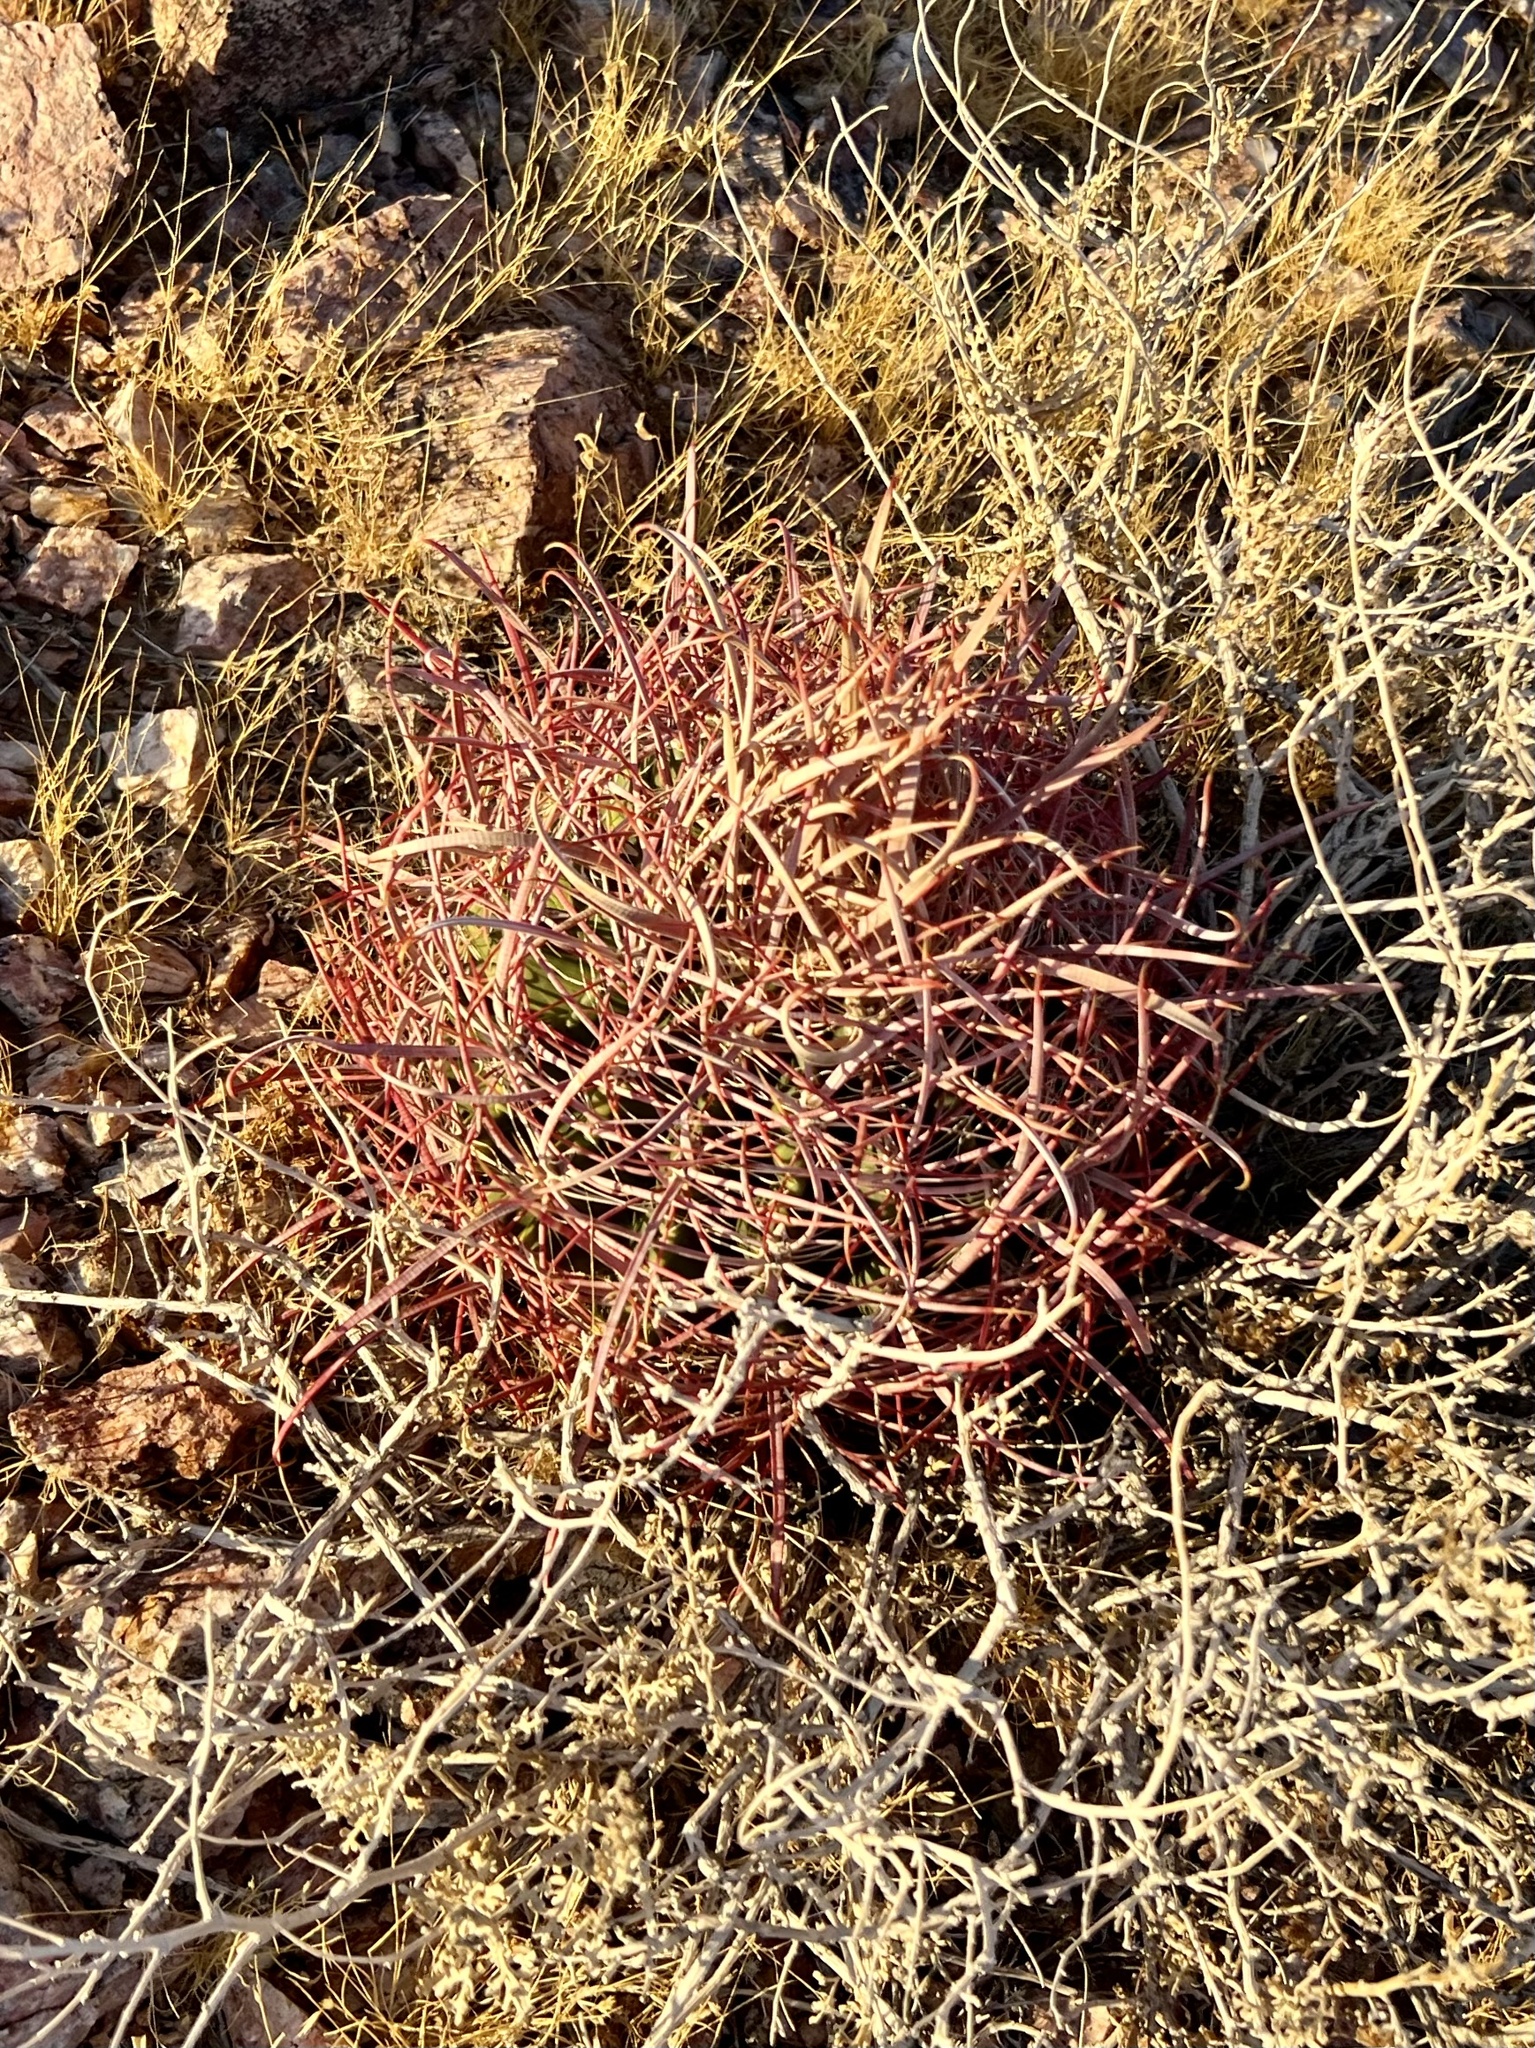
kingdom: Plantae
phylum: Tracheophyta
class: Magnoliopsida
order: Caryophyllales
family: Cactaceae
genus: Ferocactus
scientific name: Ferocactus cylindraceus
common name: California barrel cactus
